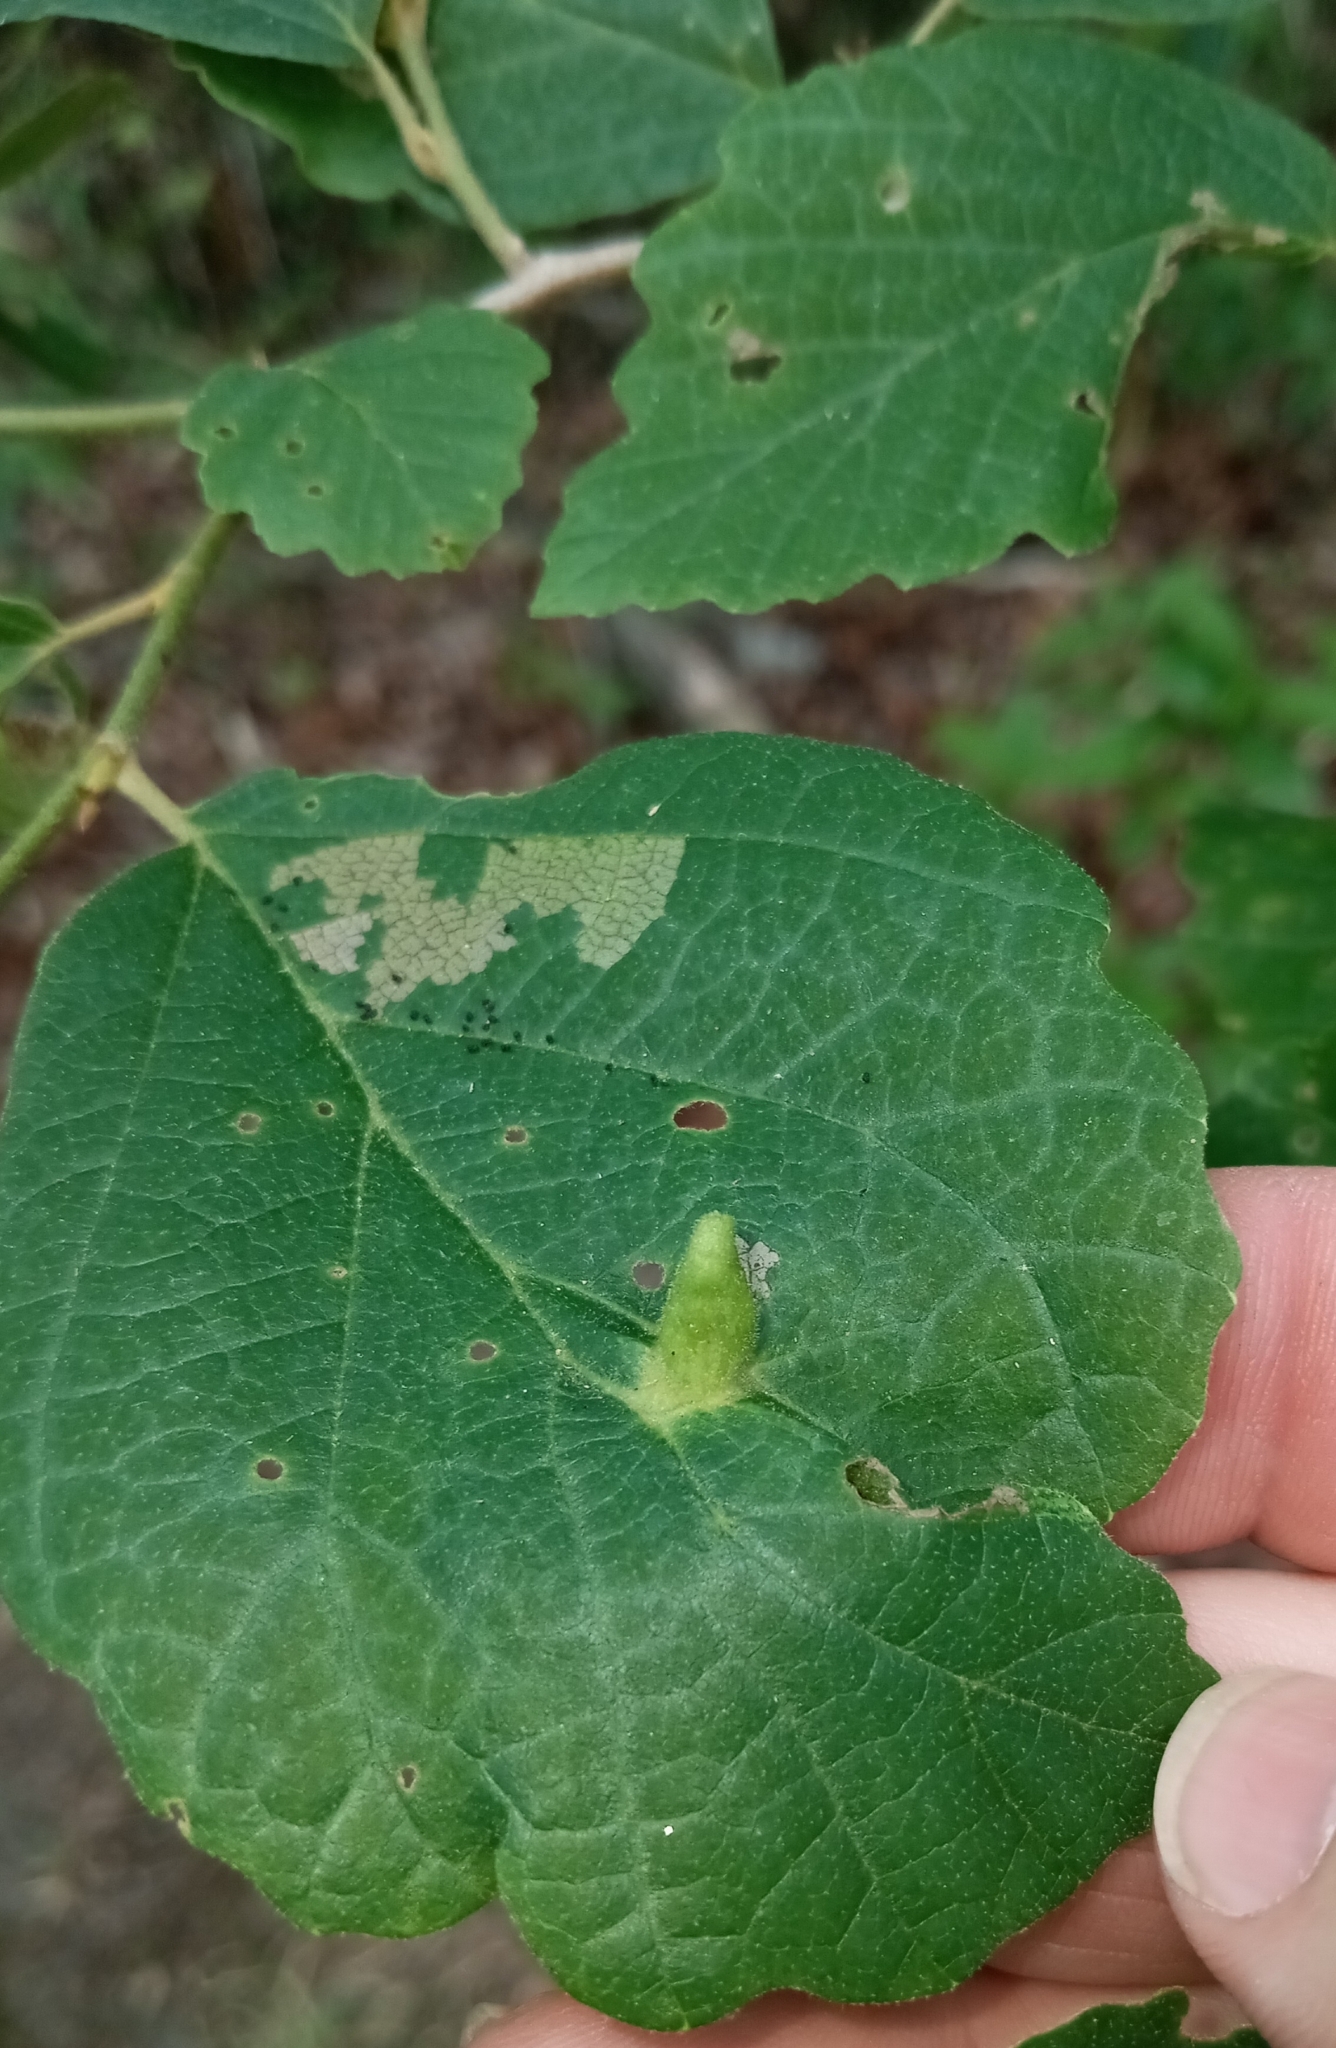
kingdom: Animalia
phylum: Arthropoda
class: Insecta
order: Hemiptera
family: Aphididae
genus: Hormaphis
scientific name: Hormaphis hamamelidis
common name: Witch-hazel cone gall aphid
